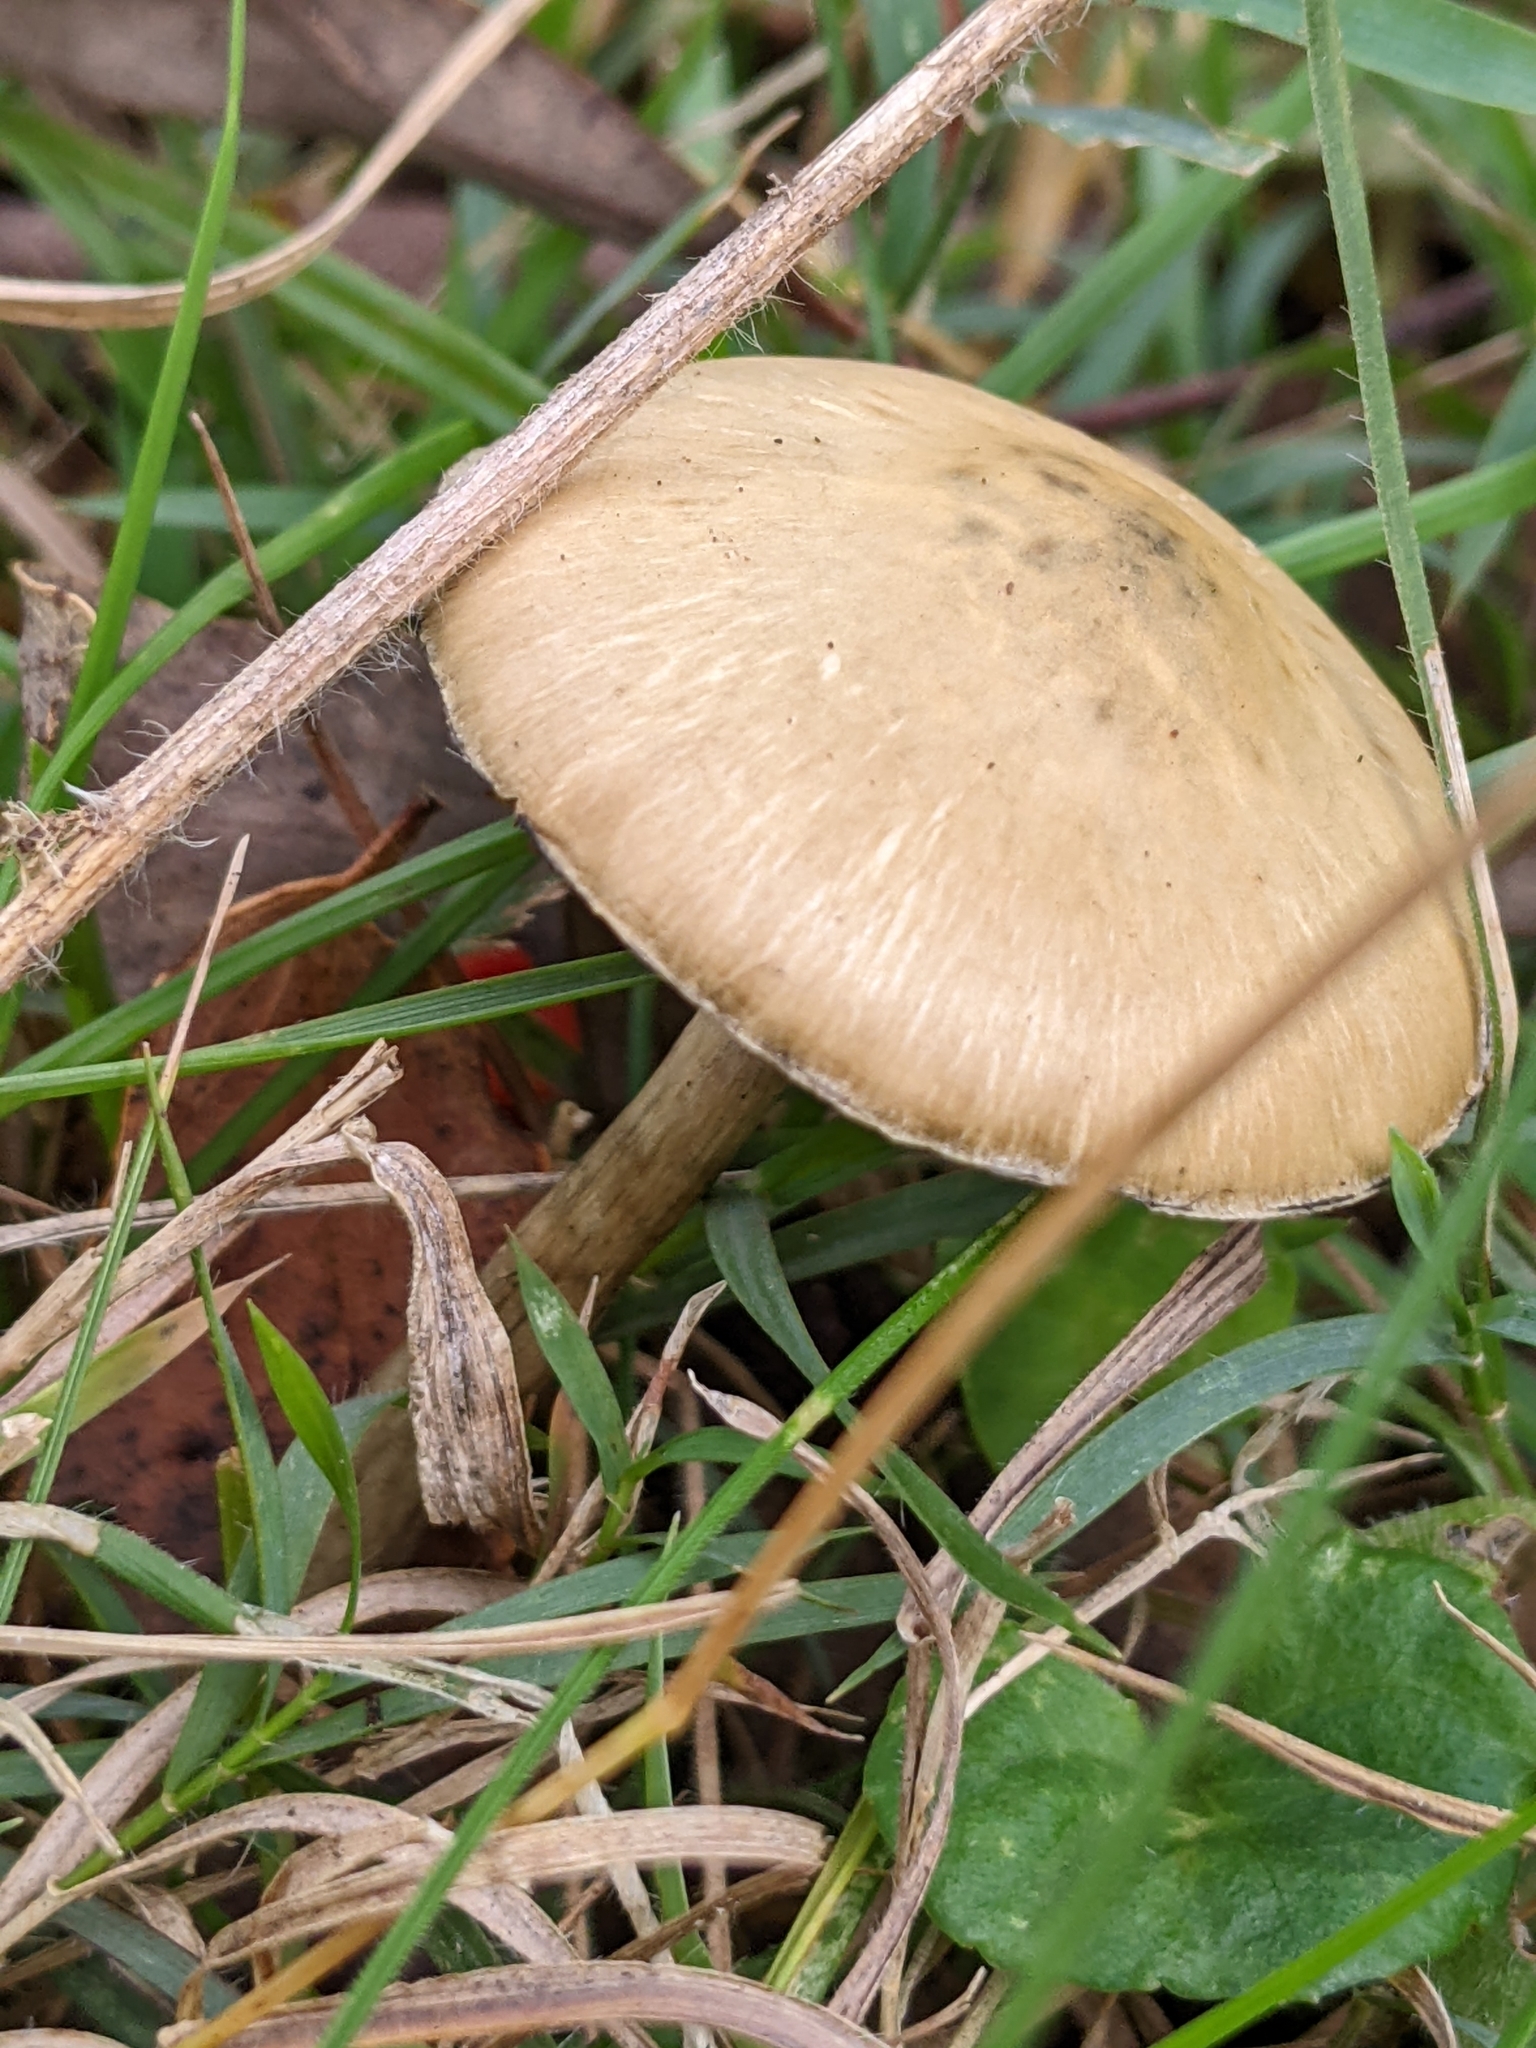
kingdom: Fungi
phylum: Basidiomycota
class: Agaricomycetes
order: Agaricales
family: Hymenogastraceae
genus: Psilocybe
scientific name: Psilocybe subaeruginosa
